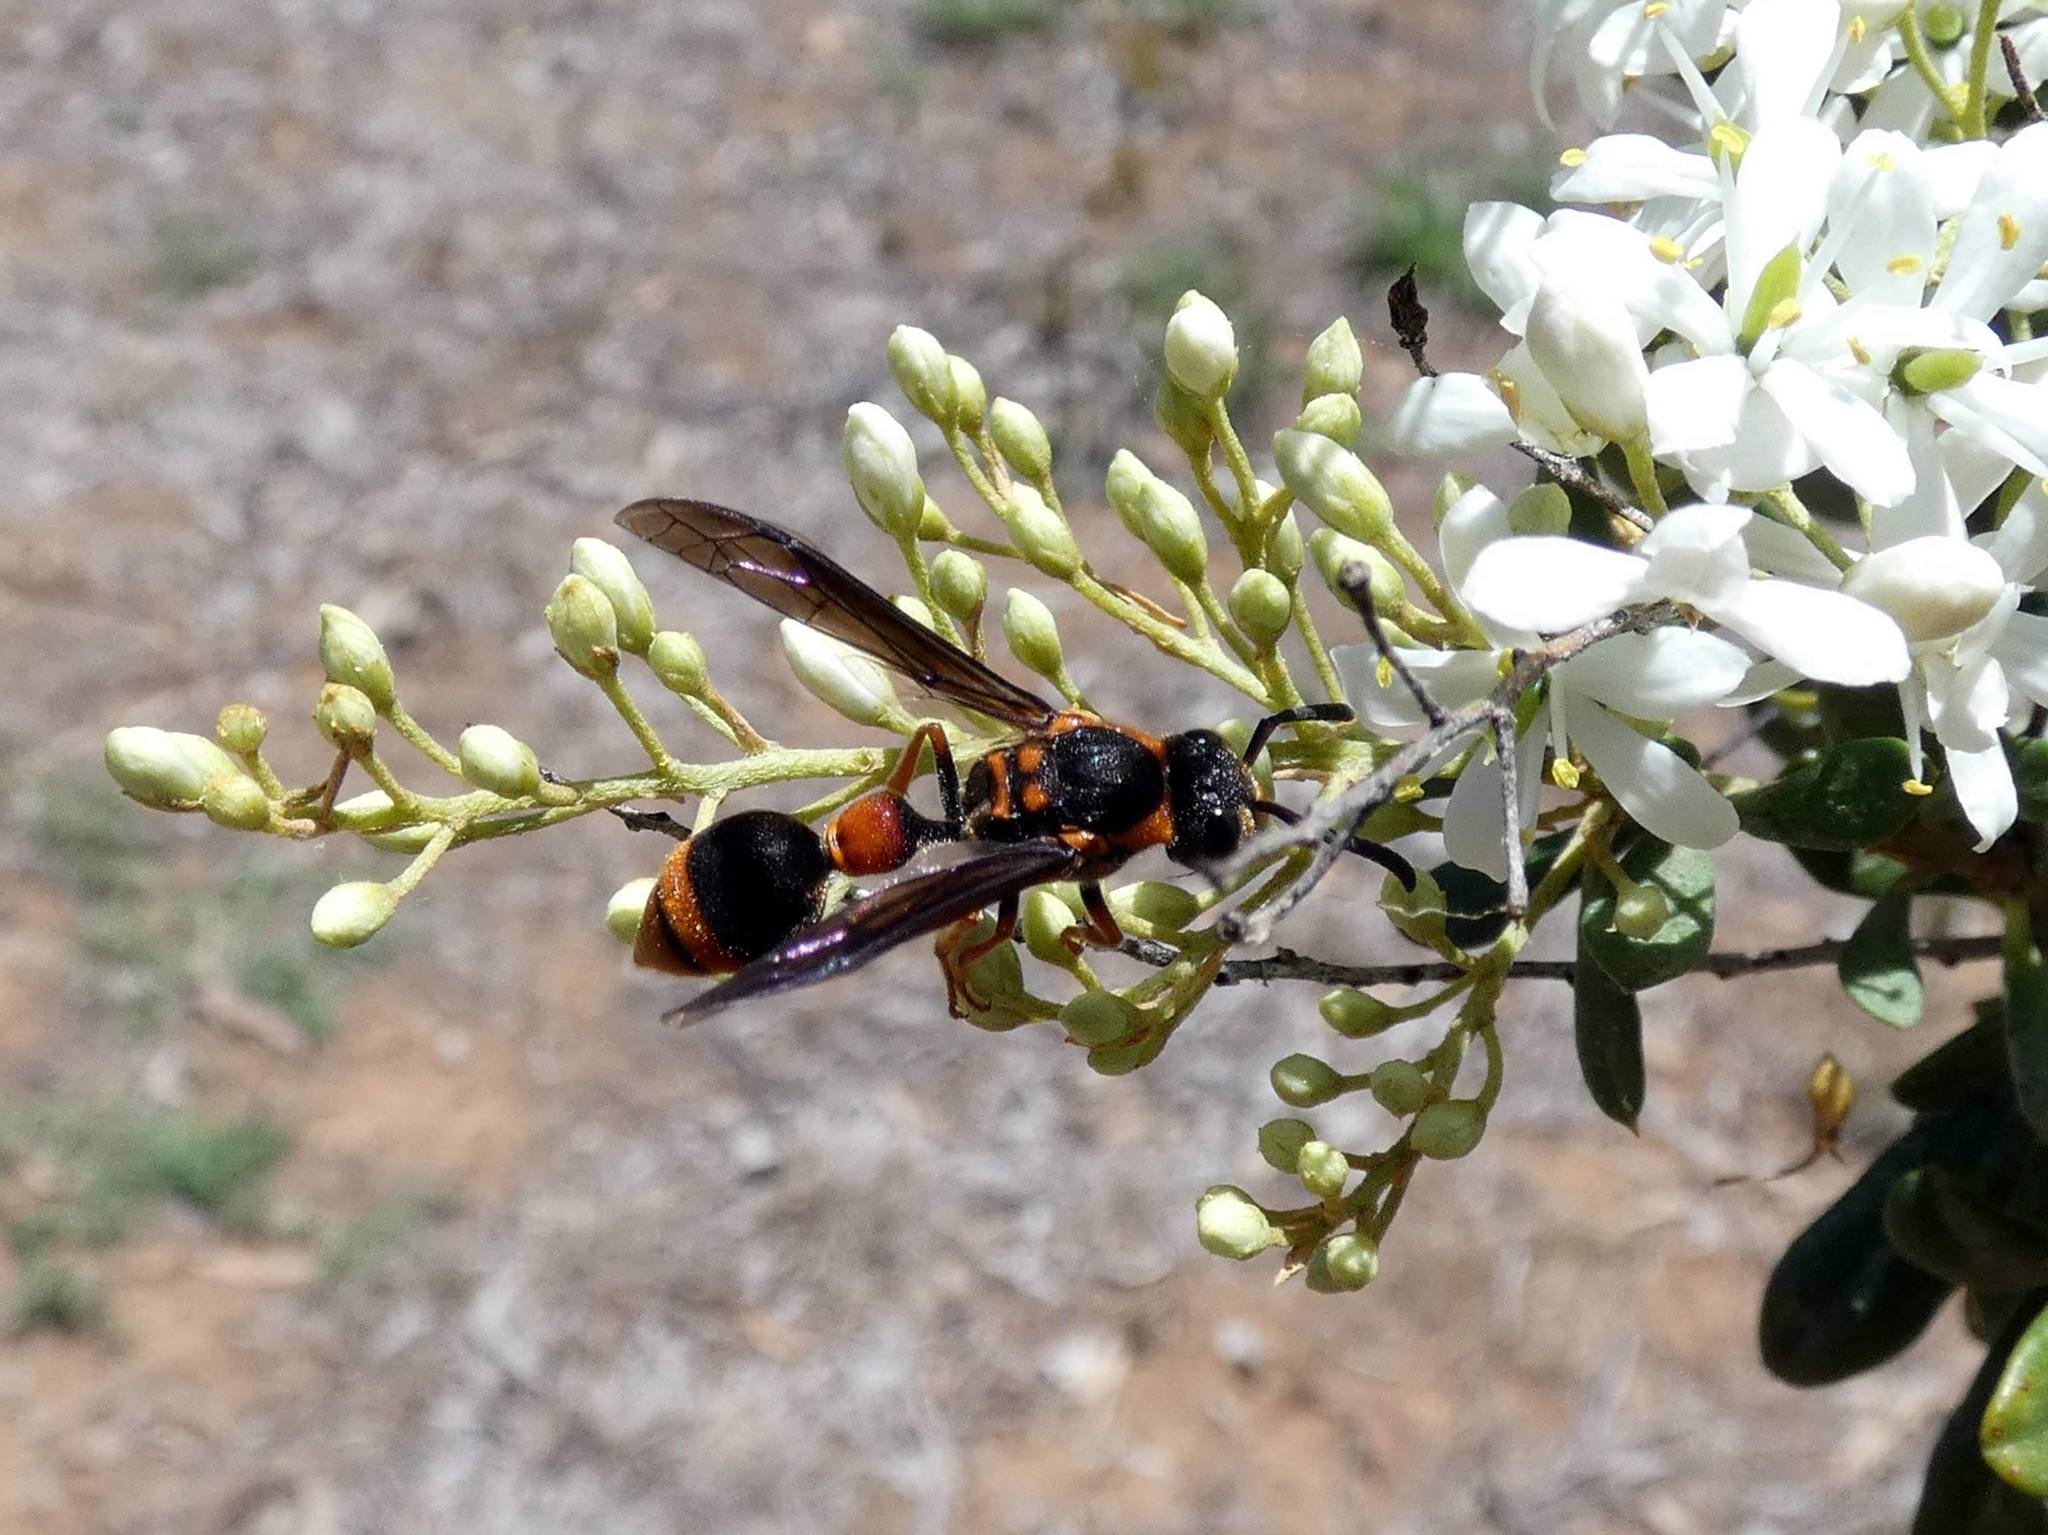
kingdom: Animalia
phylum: Arthropoda
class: Insecta
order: Hymenoptera
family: Eumenidae
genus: Deuterodiscoelius
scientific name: Deuterodiscoelius verreauxii
